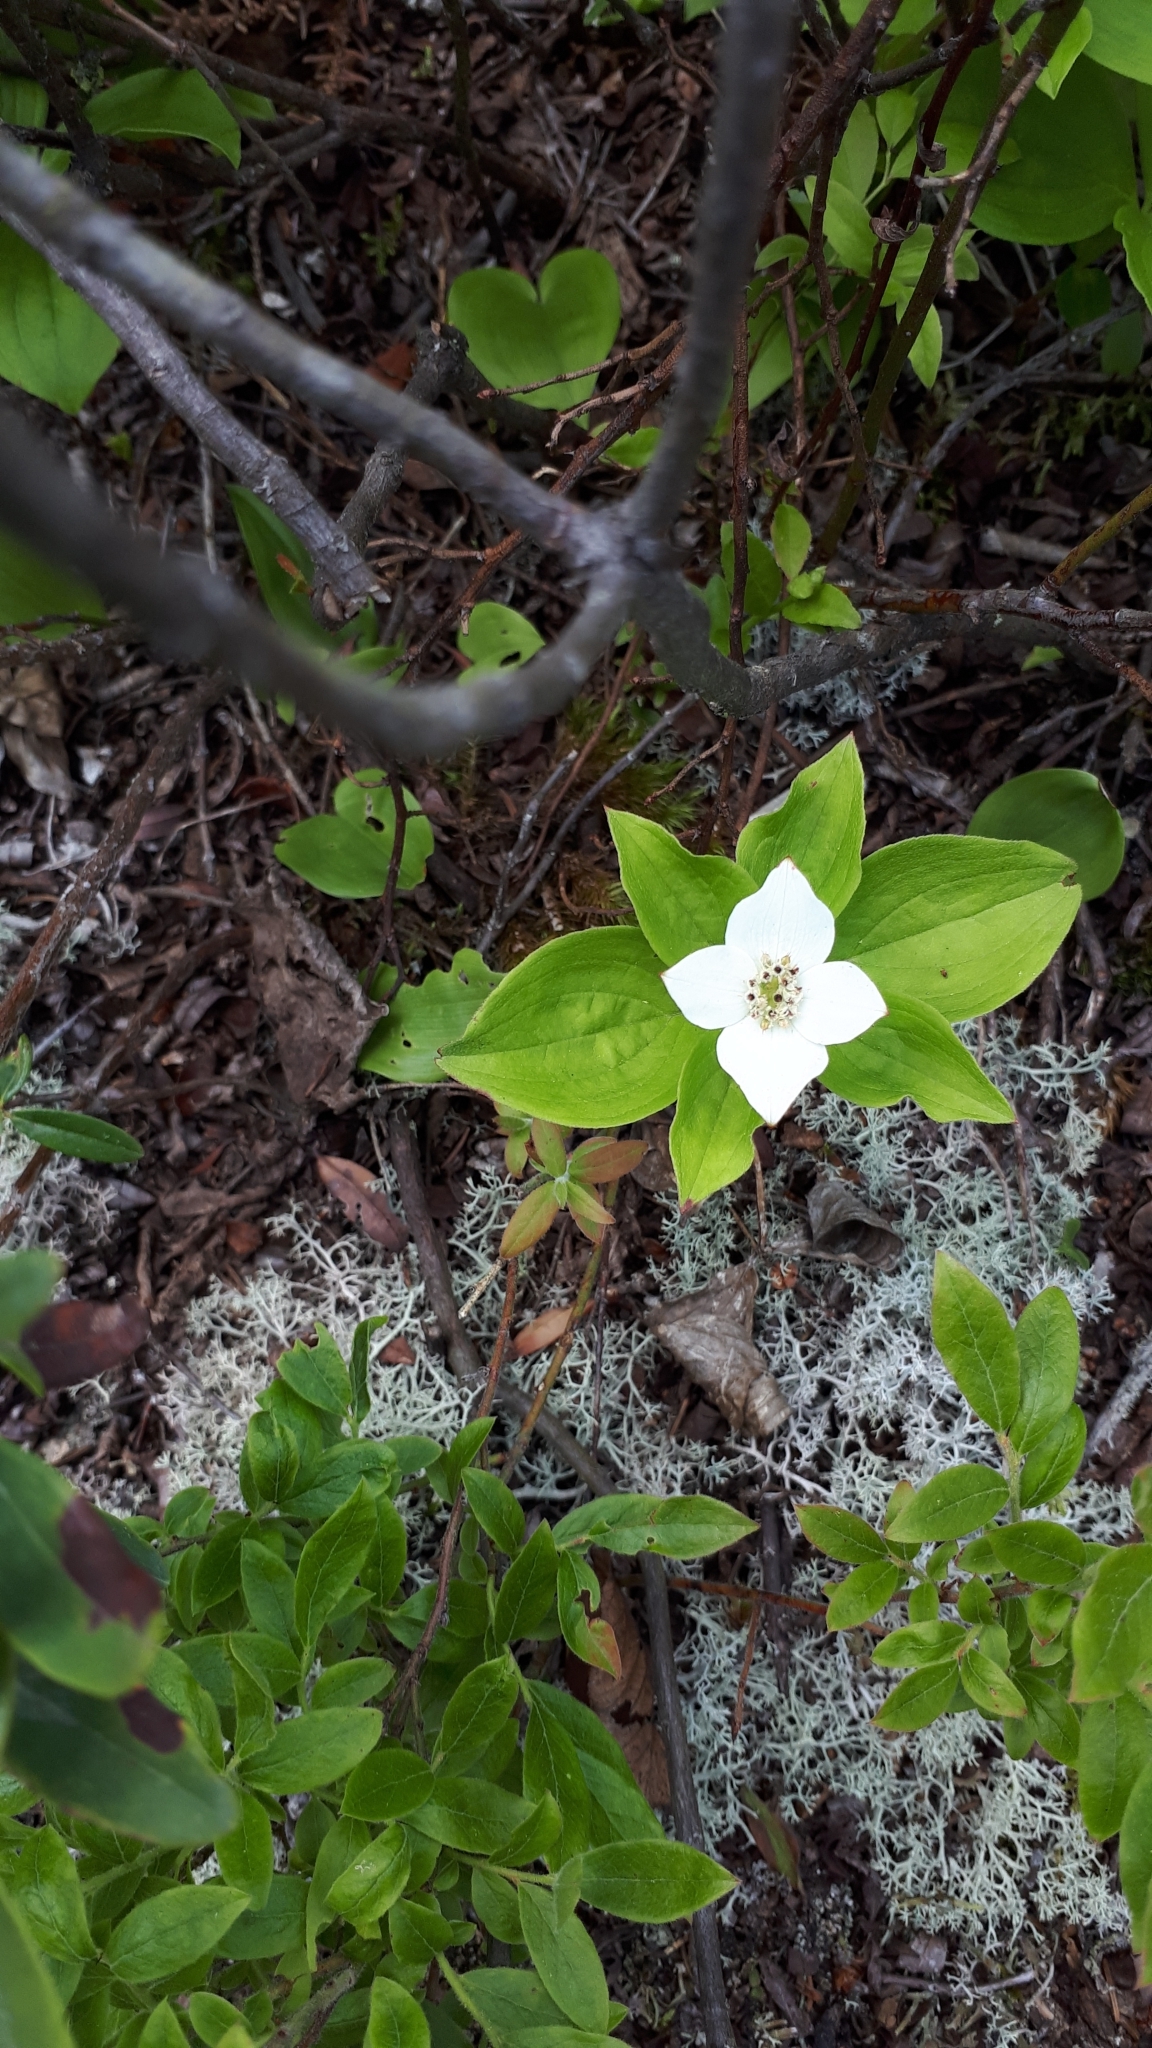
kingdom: Plantae
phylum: Tracheophyta
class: Magnoliopsida
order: Cornales
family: Cornaceae
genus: Cornus
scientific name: Cornus canadensis
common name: Creeping dogwood
